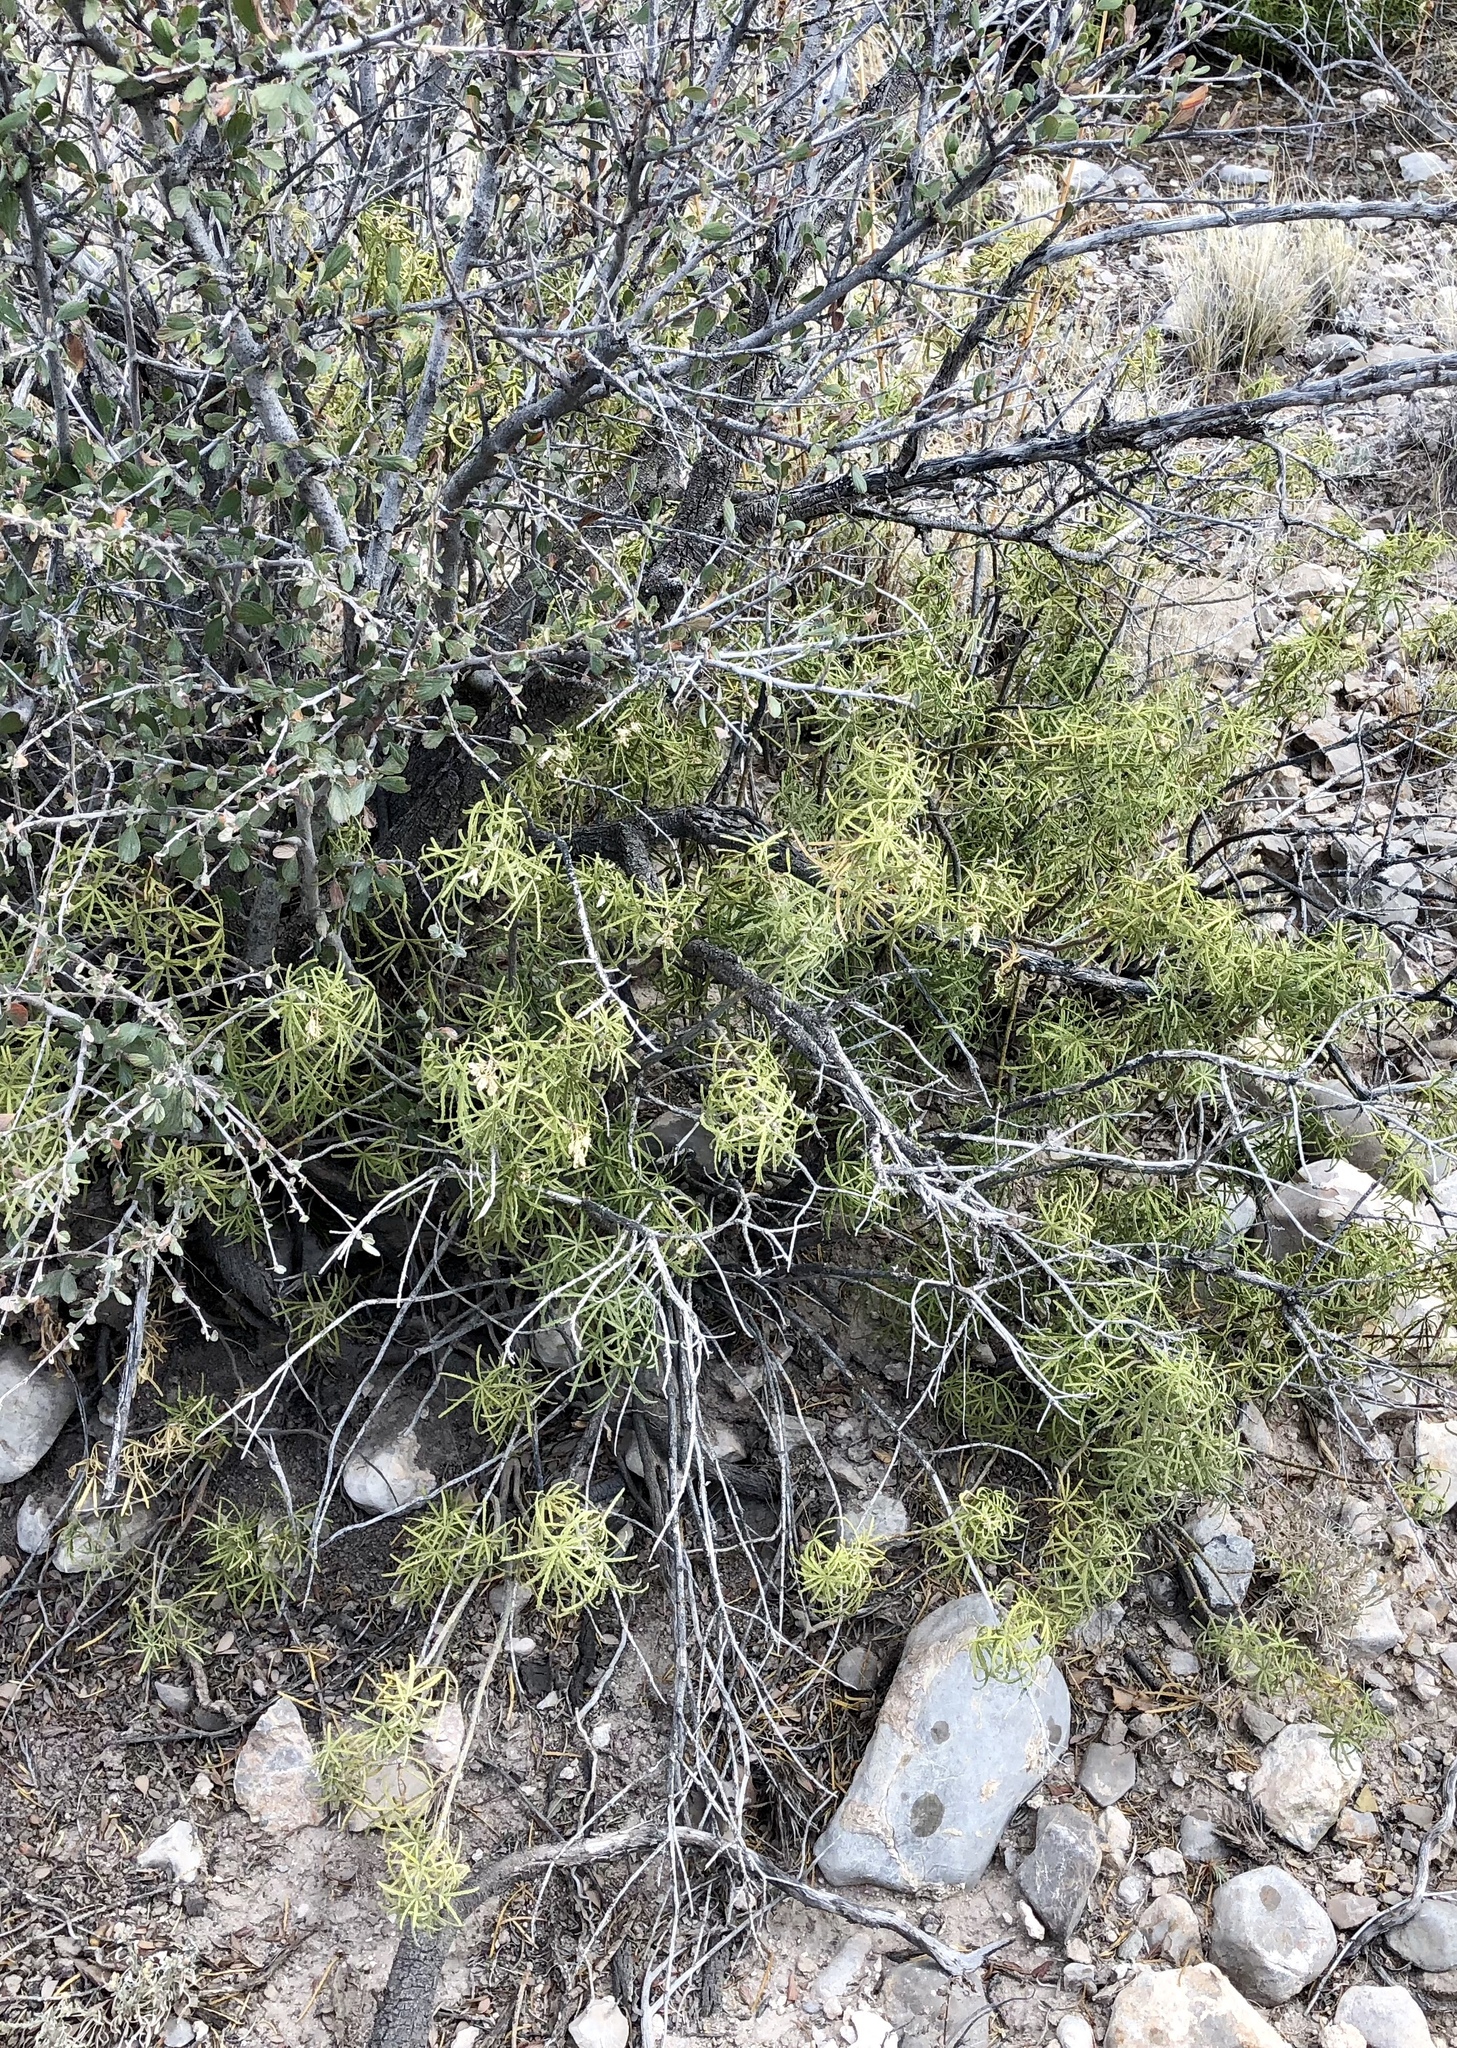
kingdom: Plantae
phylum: Tracheophyta
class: Magnoliopsida
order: Sapindales
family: Rutaceae
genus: Choisya
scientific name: Choisya dumosa
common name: Mexican-orange
